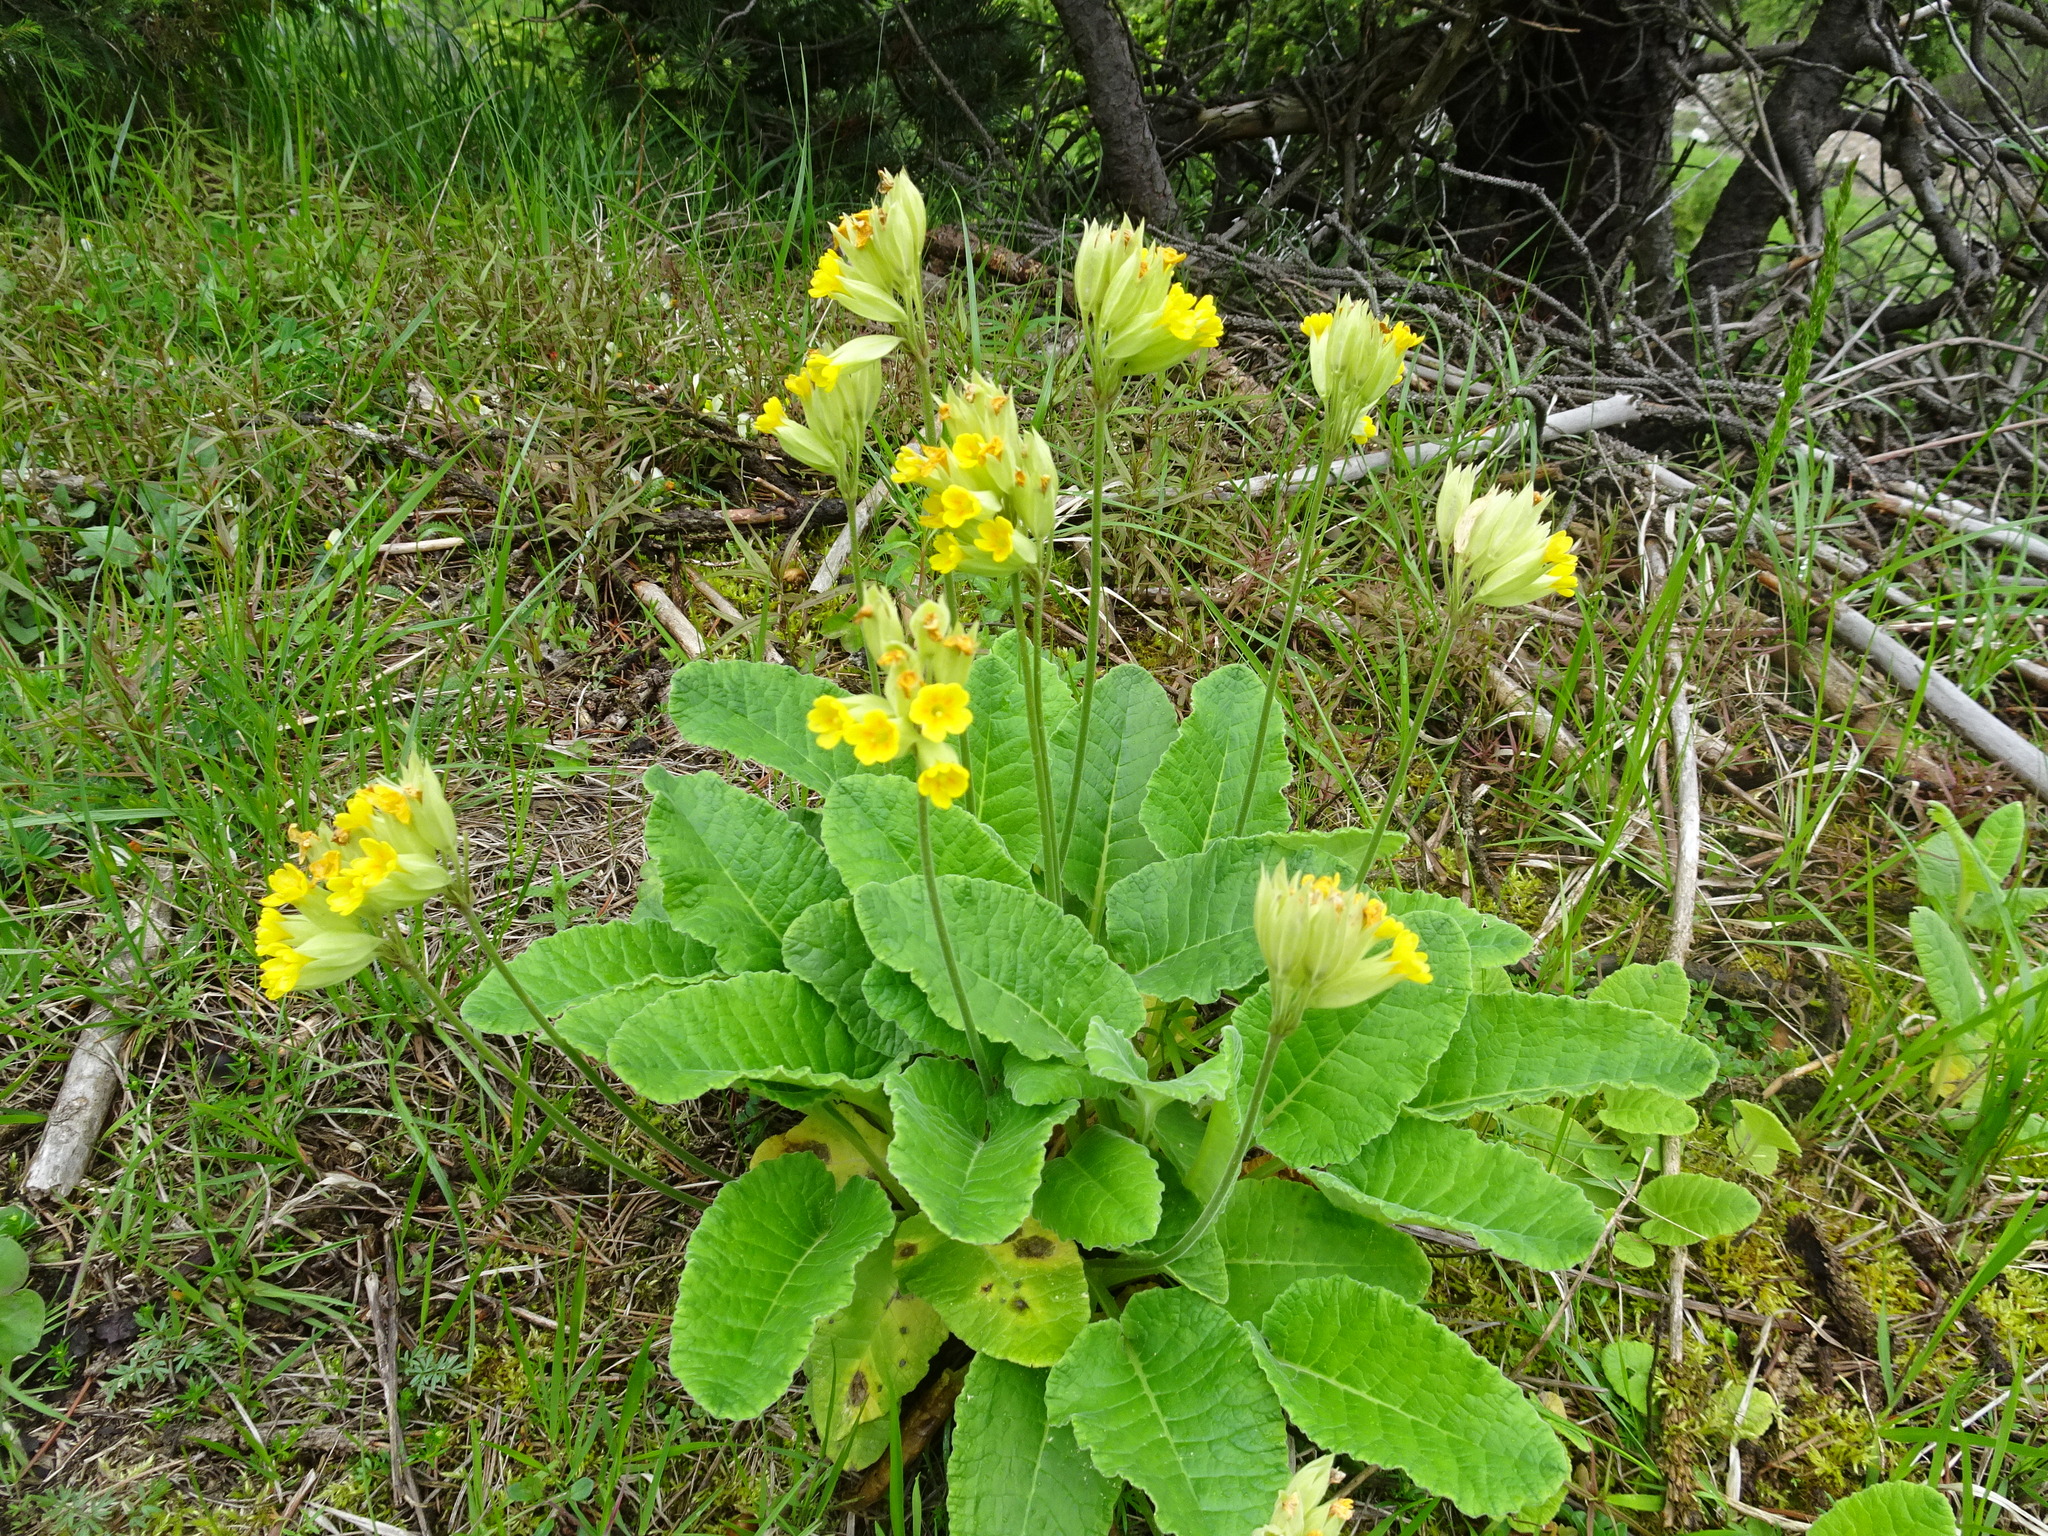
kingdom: Plantae
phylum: Tracheophyta
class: Magnoliopsida
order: Ericales
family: Primulaceae
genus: Primula
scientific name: Primula veris
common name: Cowslip
